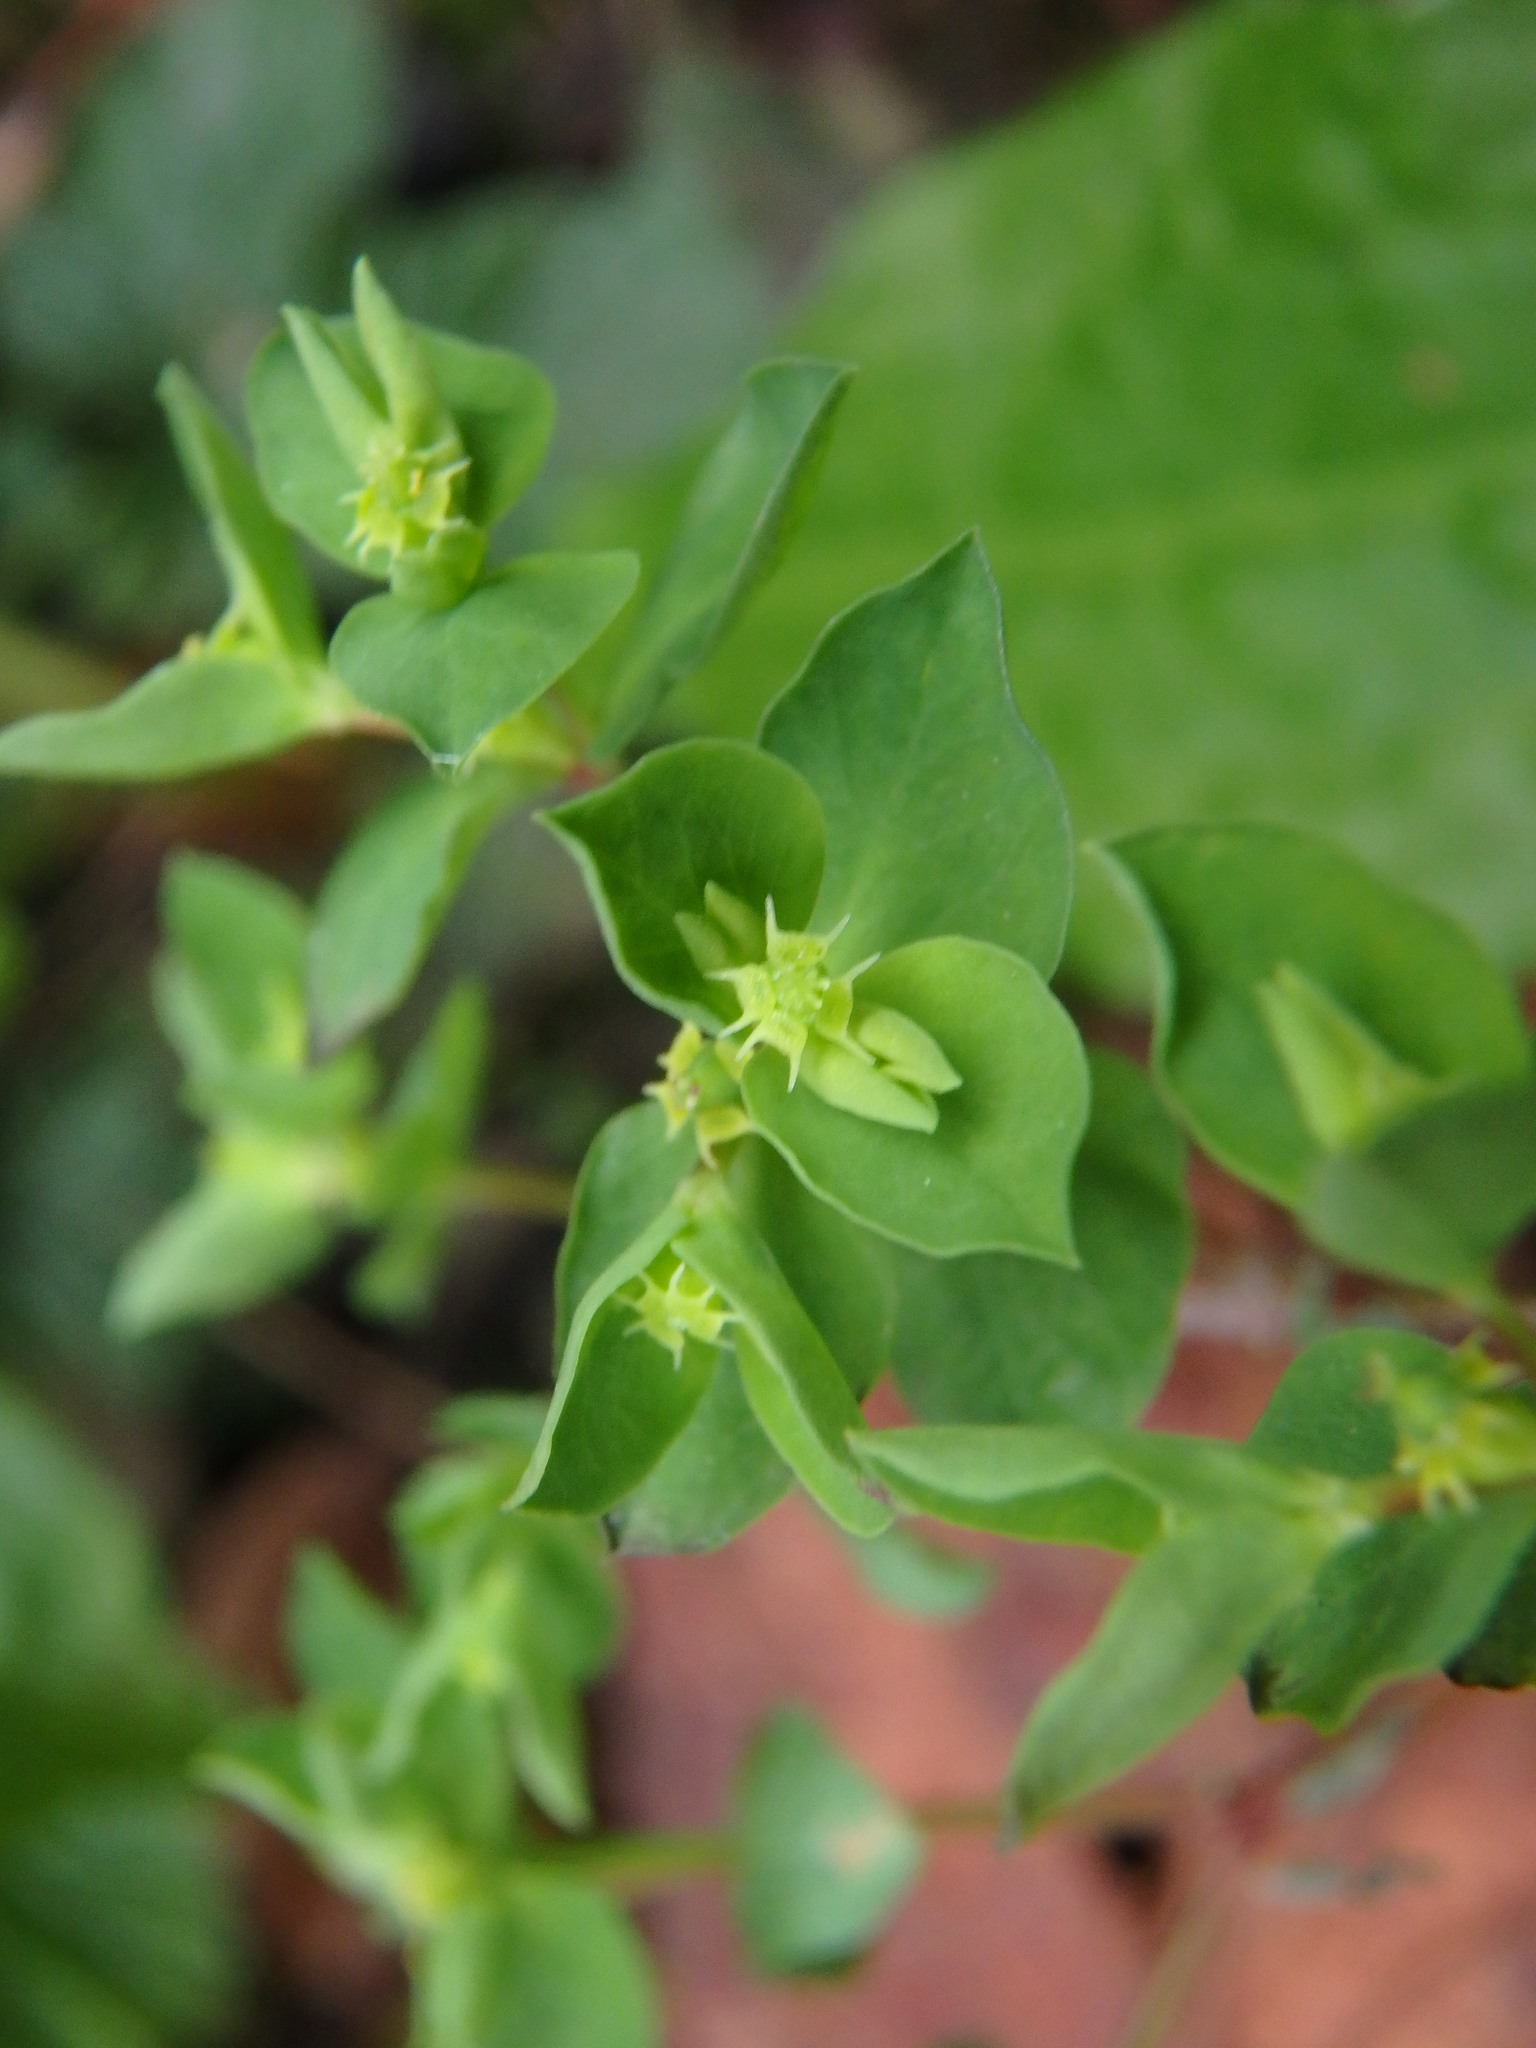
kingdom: Plantae
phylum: Tracheophyta
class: Magnoliopsida
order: Malpighiales
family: Euphorbiaceae
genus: Euphorbia
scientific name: Euphorbia peplus
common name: Petty spurge
